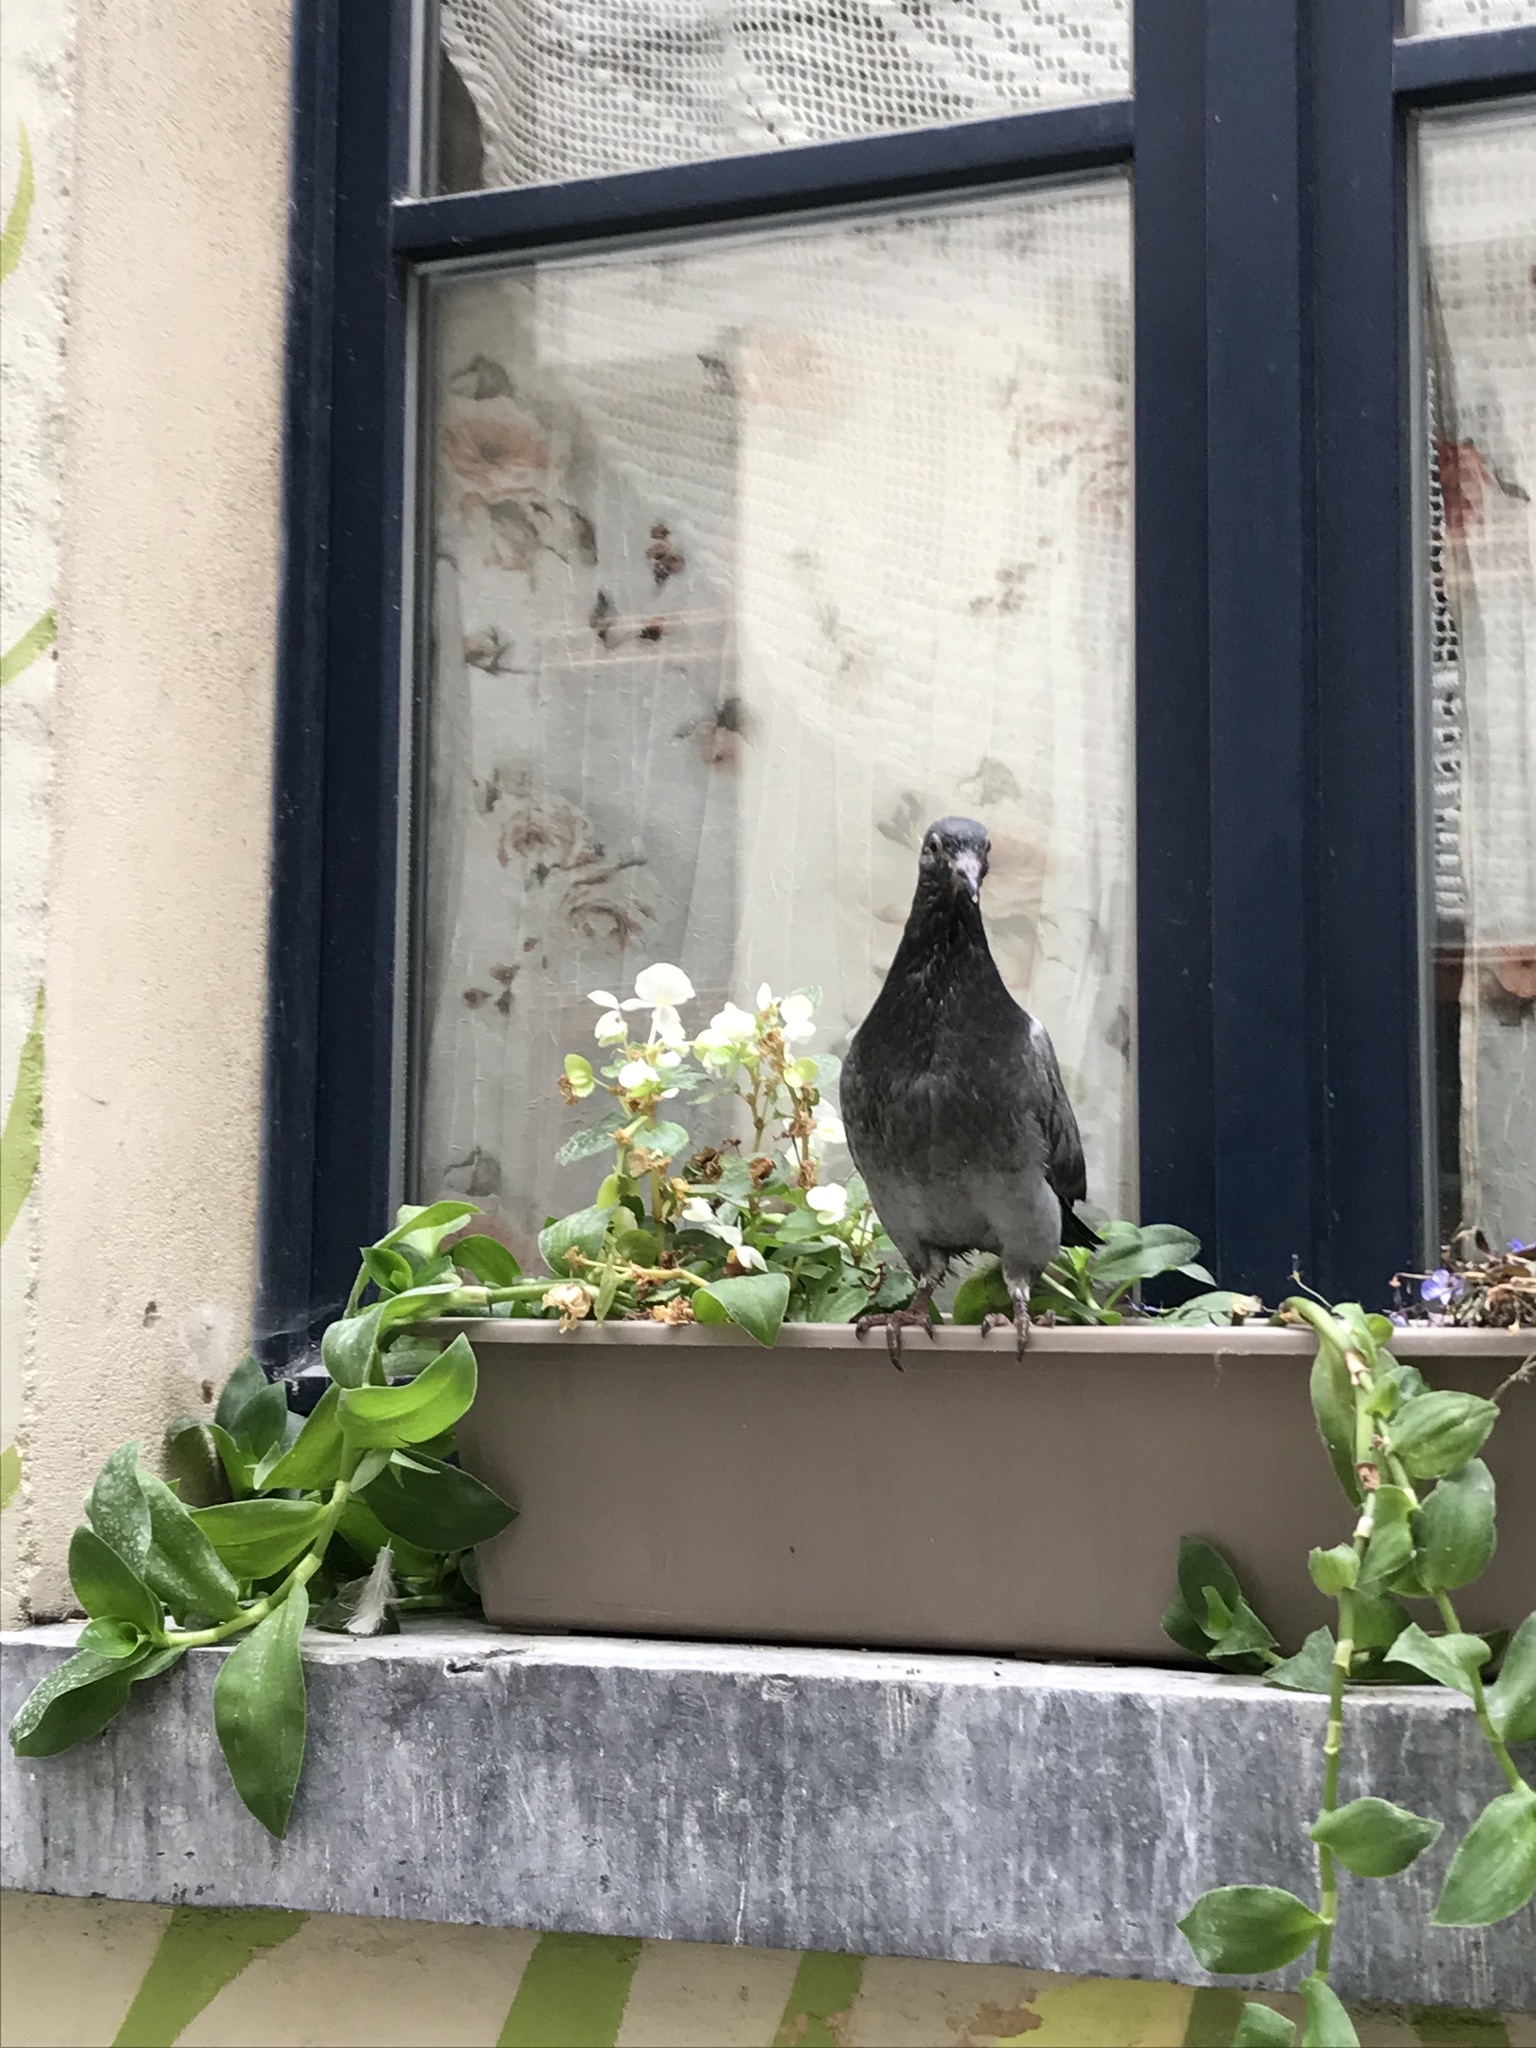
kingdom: Animalia
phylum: Chordata
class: Aves
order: Columbiformes
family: Columbidae
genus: Columba
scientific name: Columba livia
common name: Rock pigeon
